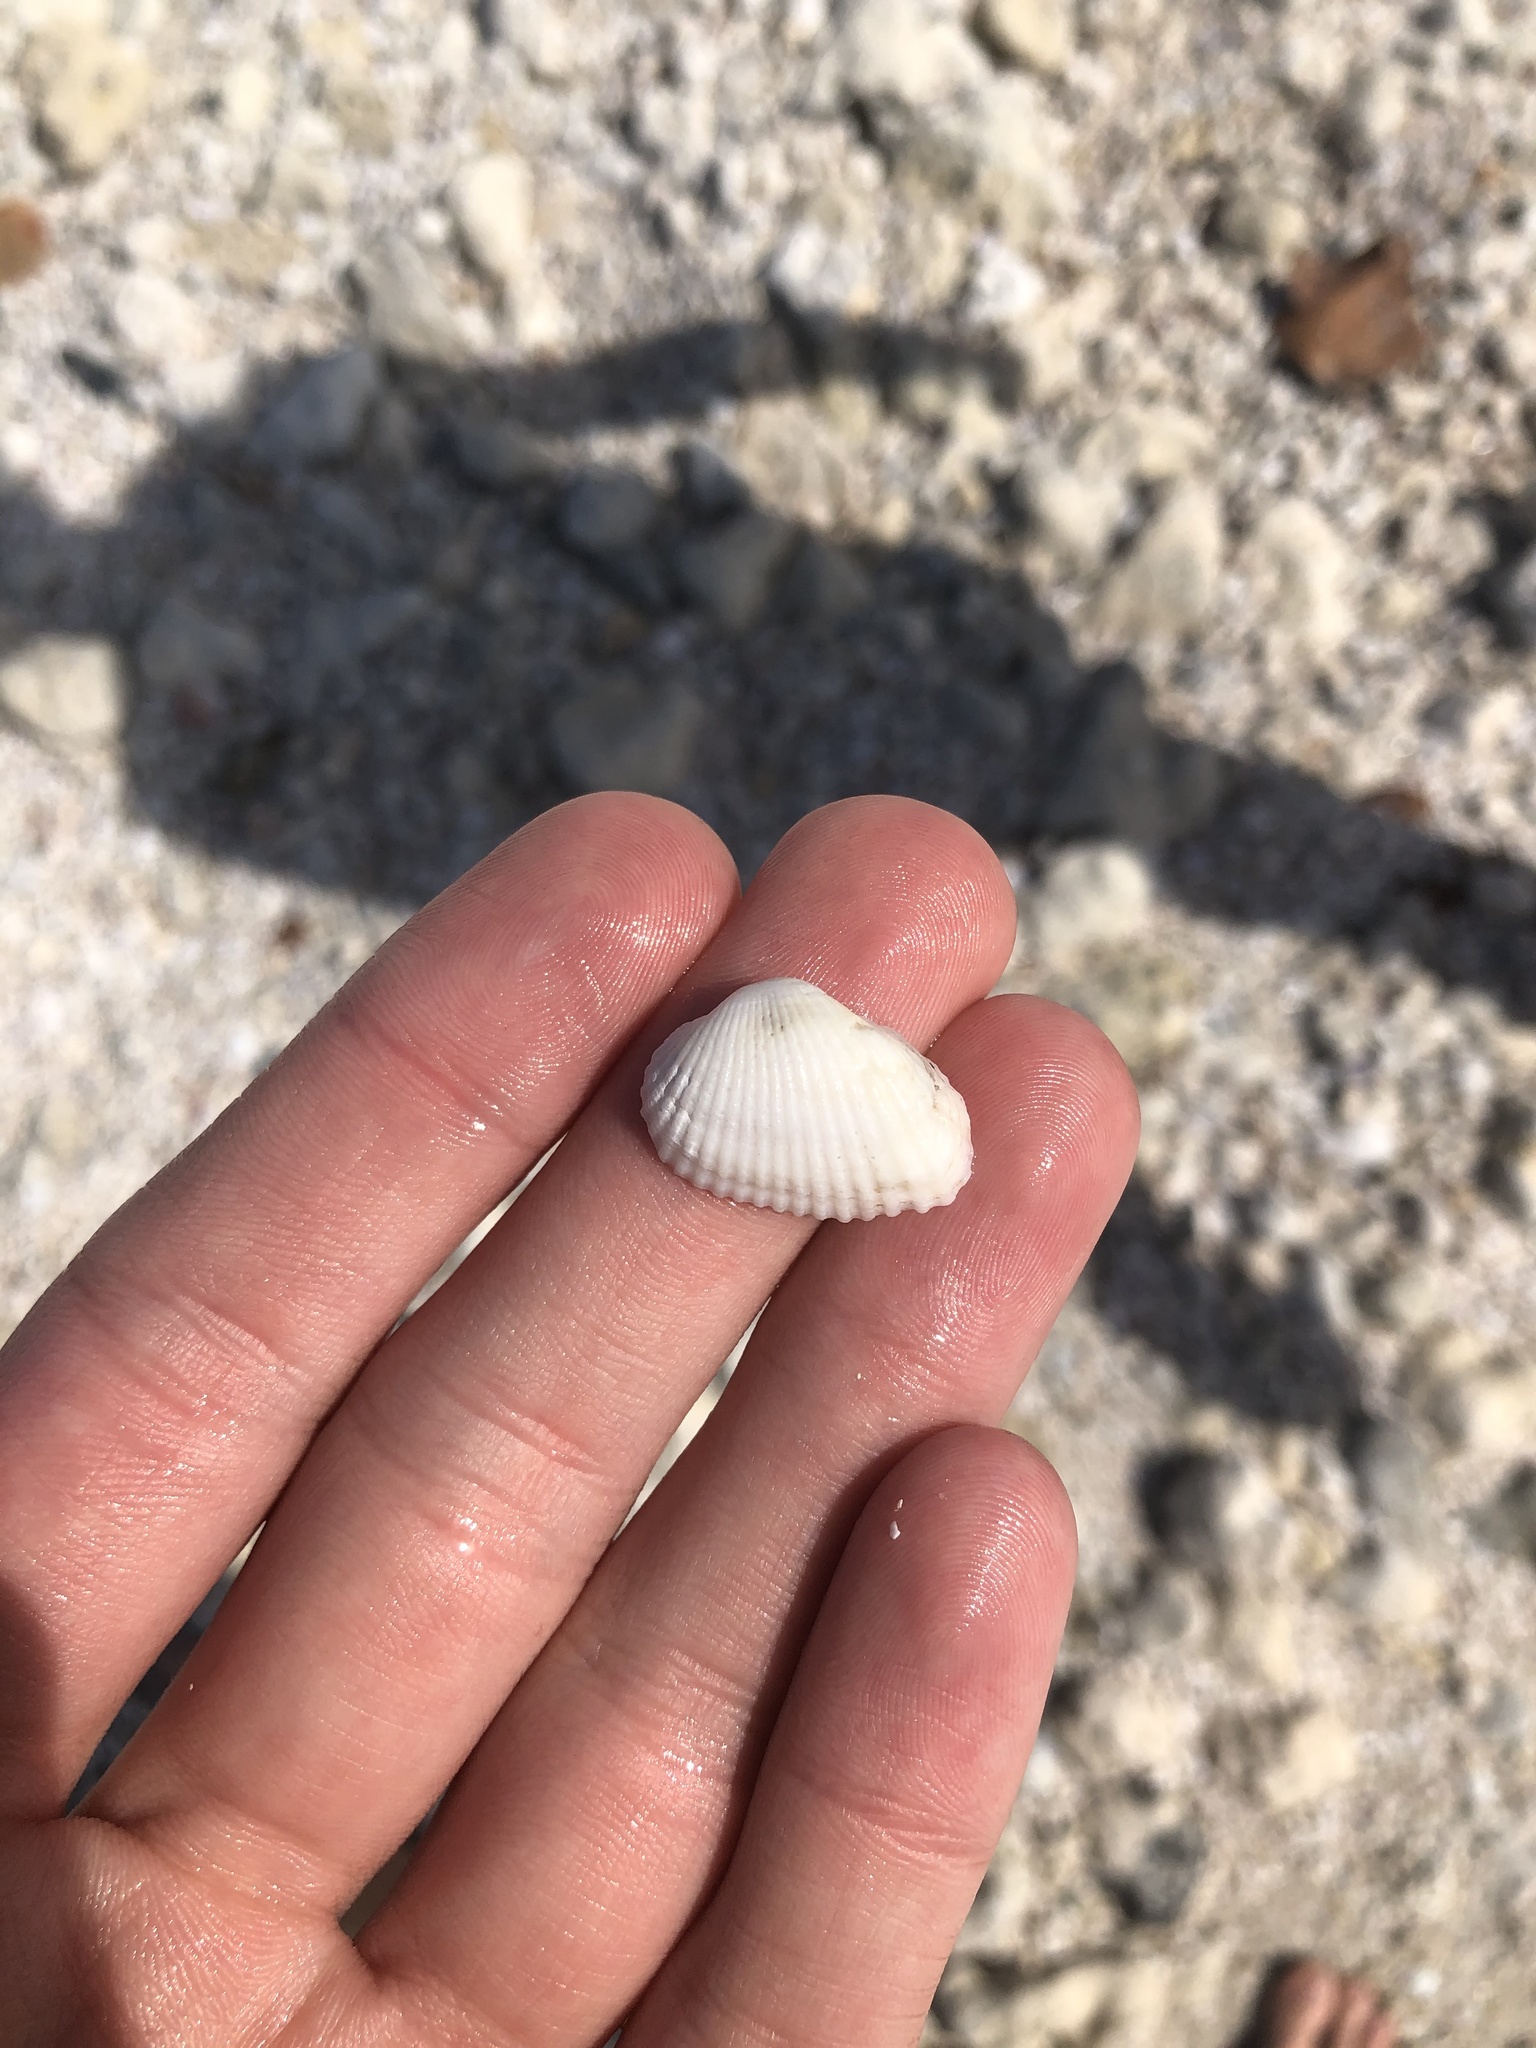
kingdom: Animalia
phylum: Mollusca
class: Bivalvia
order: Arcida
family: Arcidae
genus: Anadara
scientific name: Anadara transversa
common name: Transverse ark
